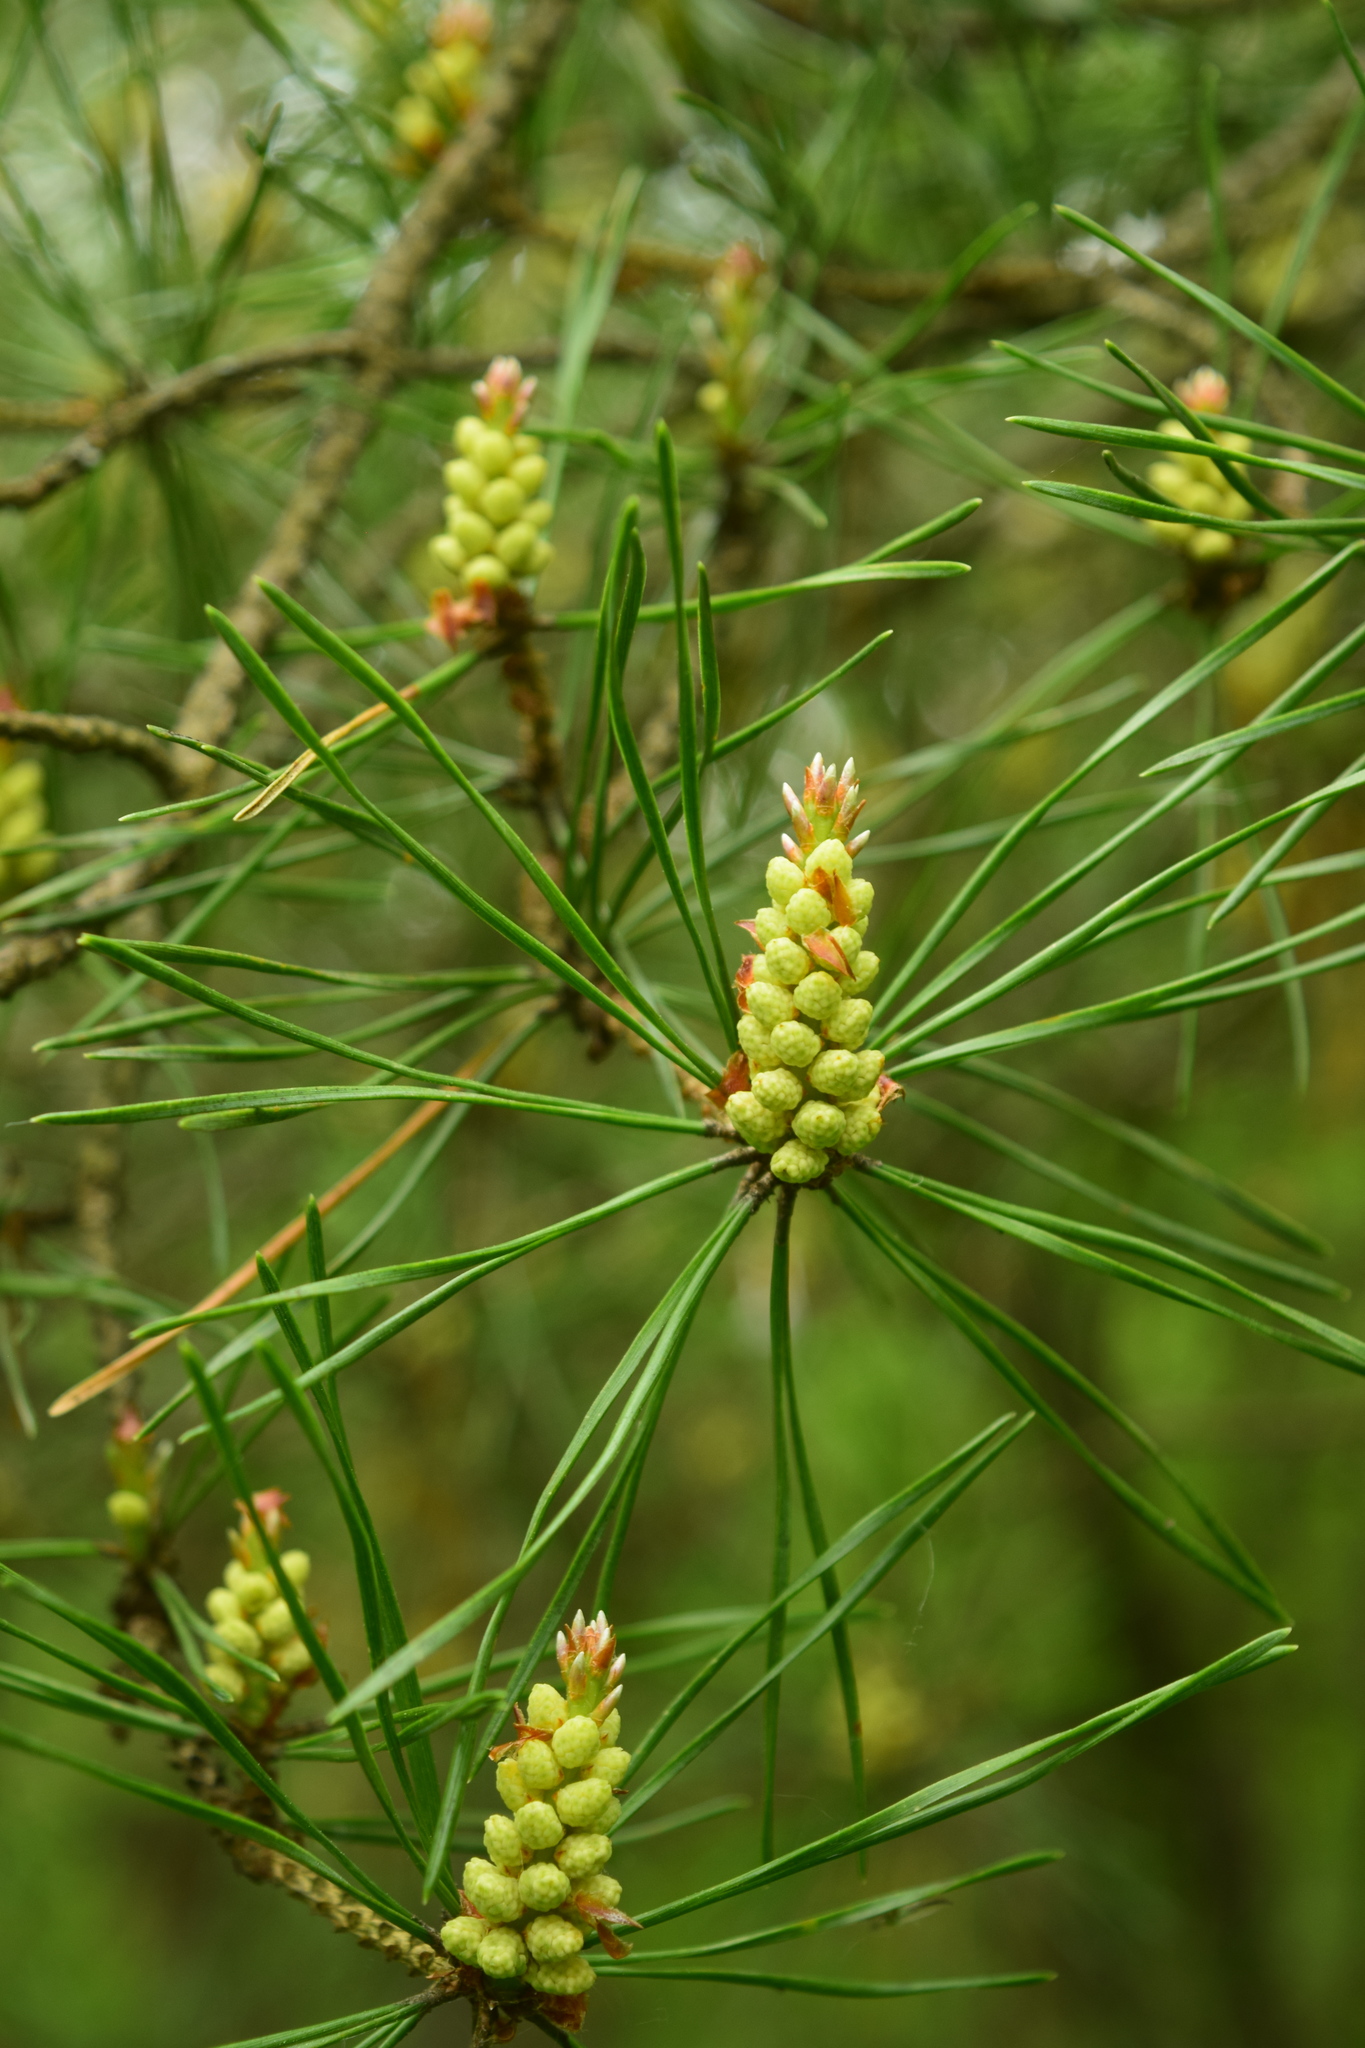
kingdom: Plantae
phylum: Tracheophyta
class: Pinopsida
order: Pinales
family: Pinaceae
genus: Pinus
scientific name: Pinus sylvestris
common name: Scots pine
